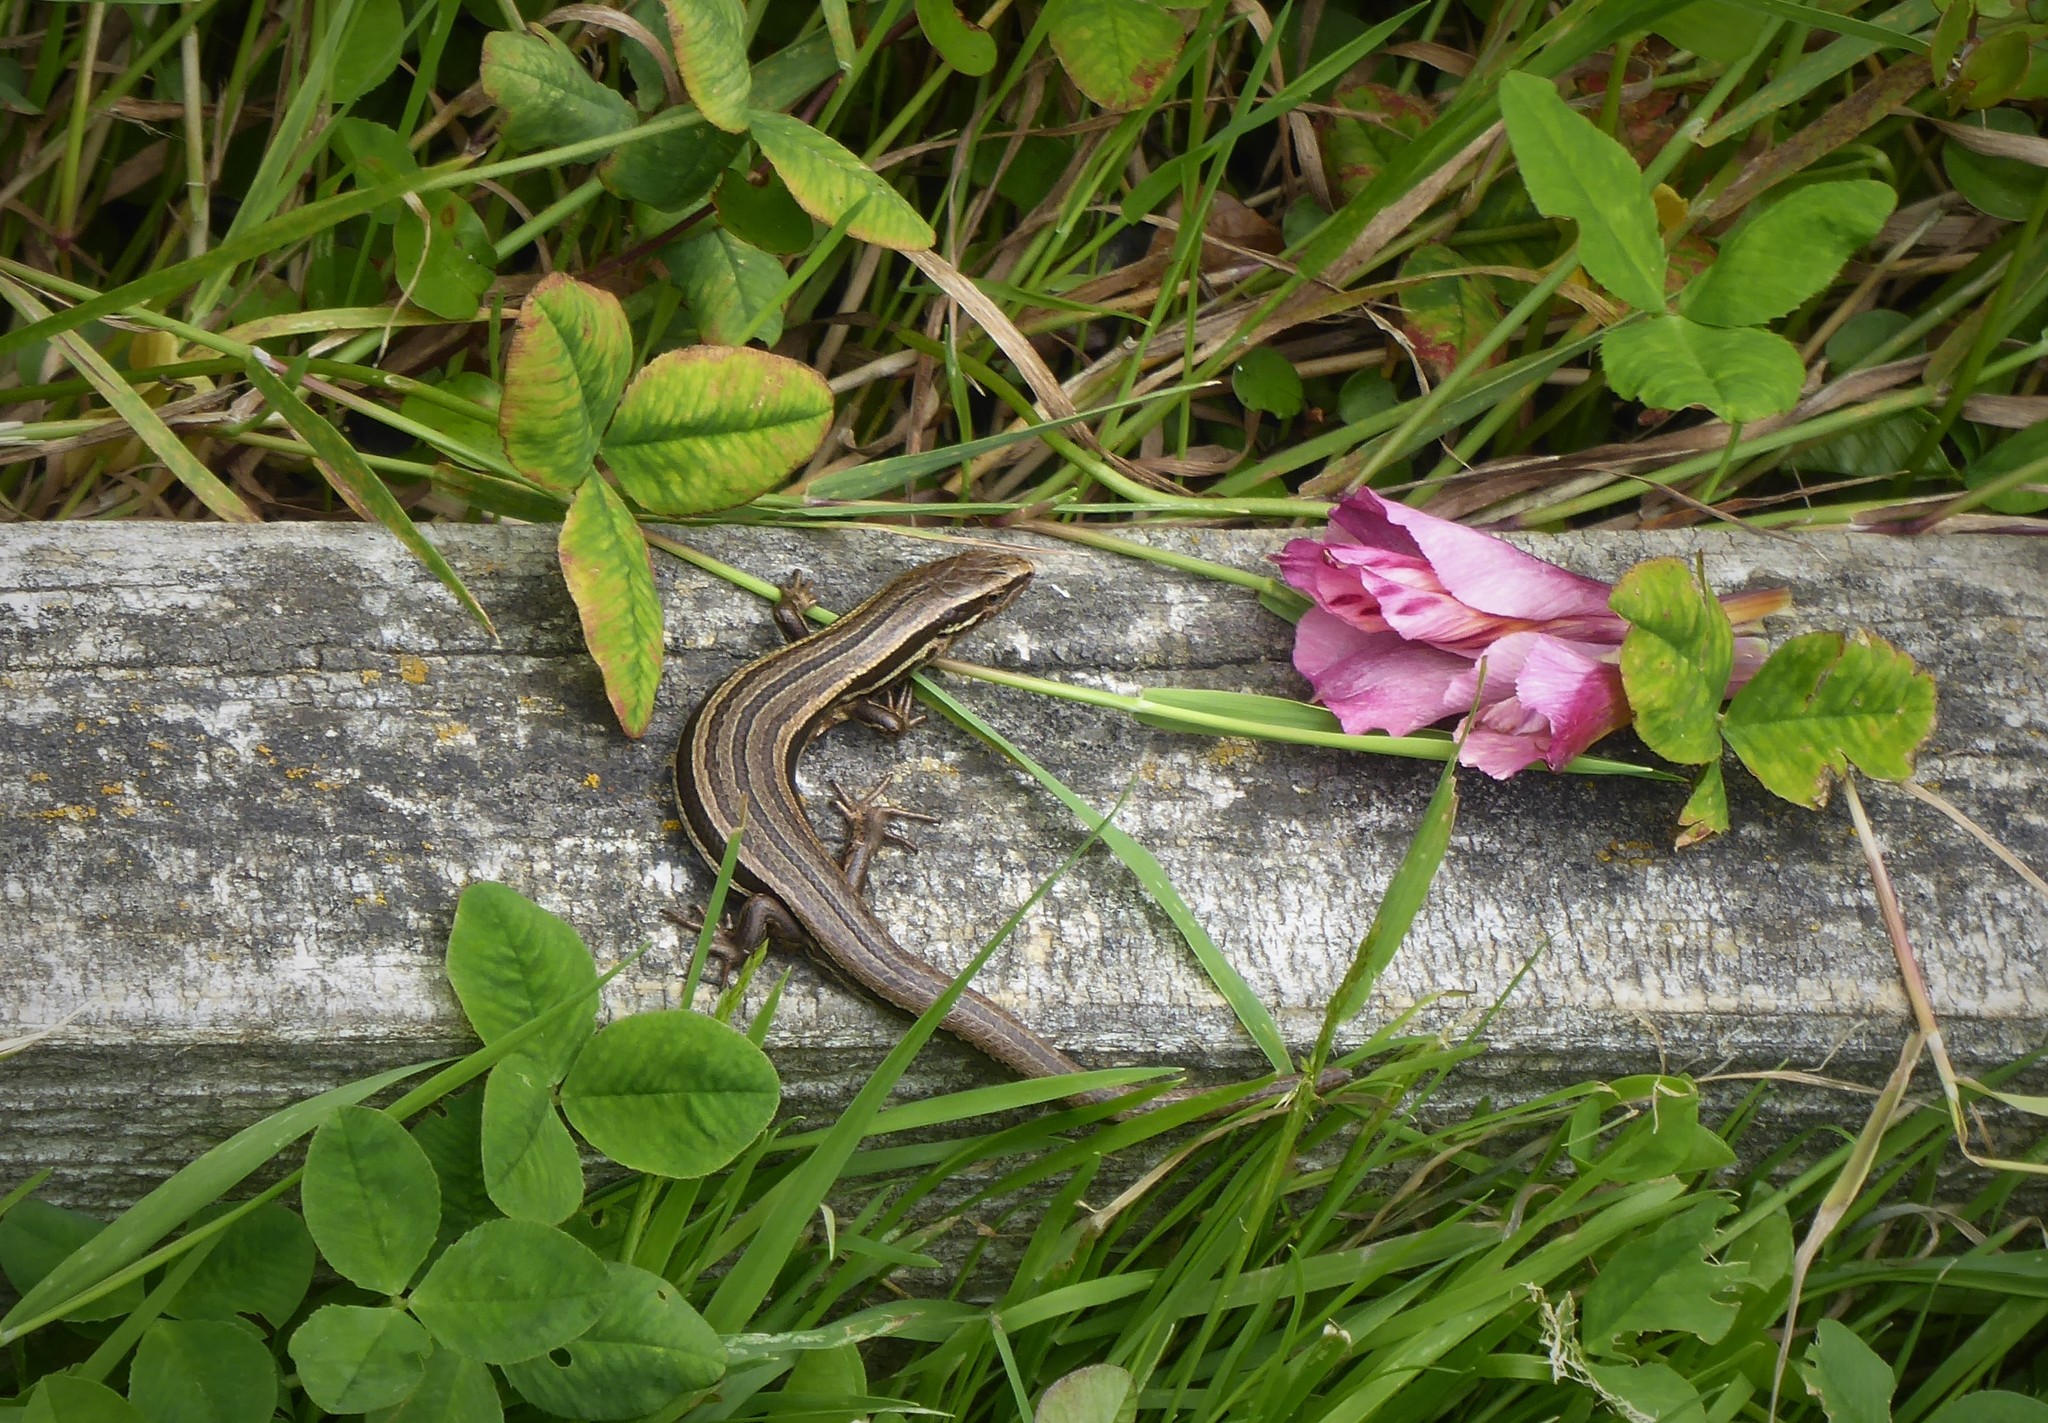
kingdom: Animalia
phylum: Chordata
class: Squamata
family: Scincidae
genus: Oligosoma
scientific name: Oligosoma polychroma
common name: Common new zealand skink
